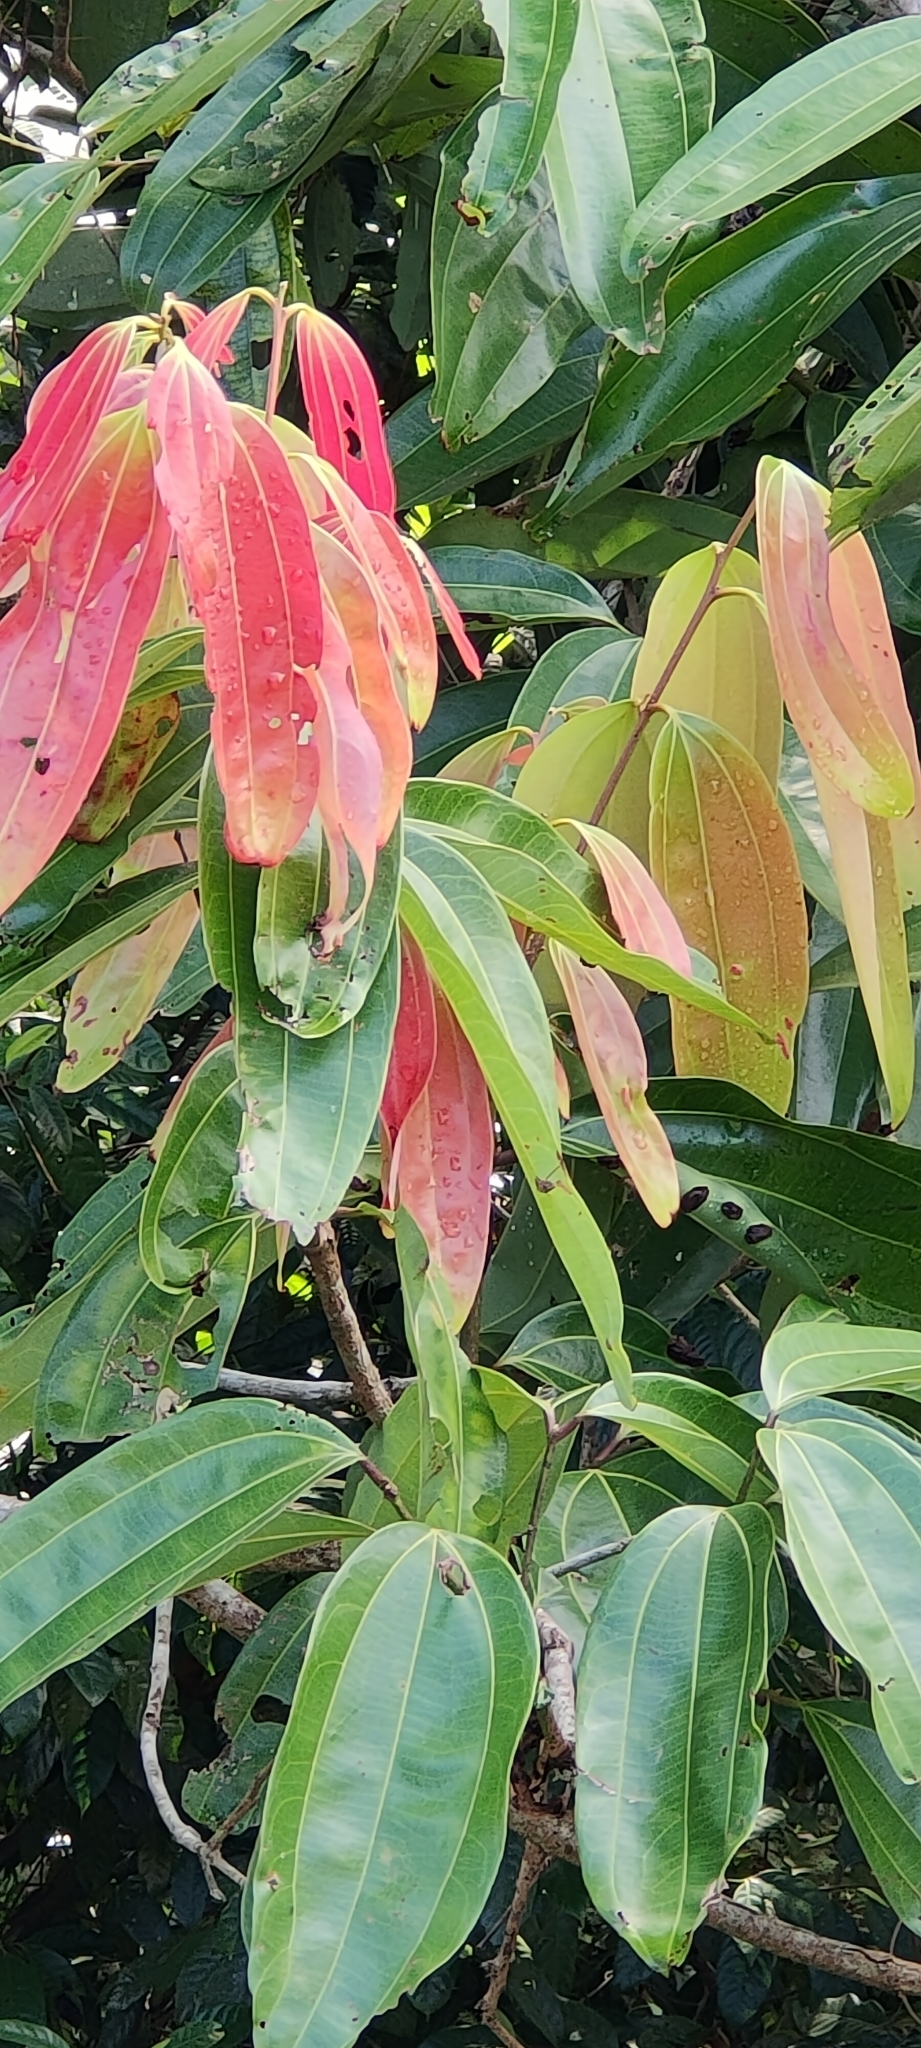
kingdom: Plantae
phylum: Tracheophyta
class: Magnoliopsida
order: Laurales
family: Lauraceae
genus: Cinnamomum
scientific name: Cinnamomum verum
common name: Cinnamon
